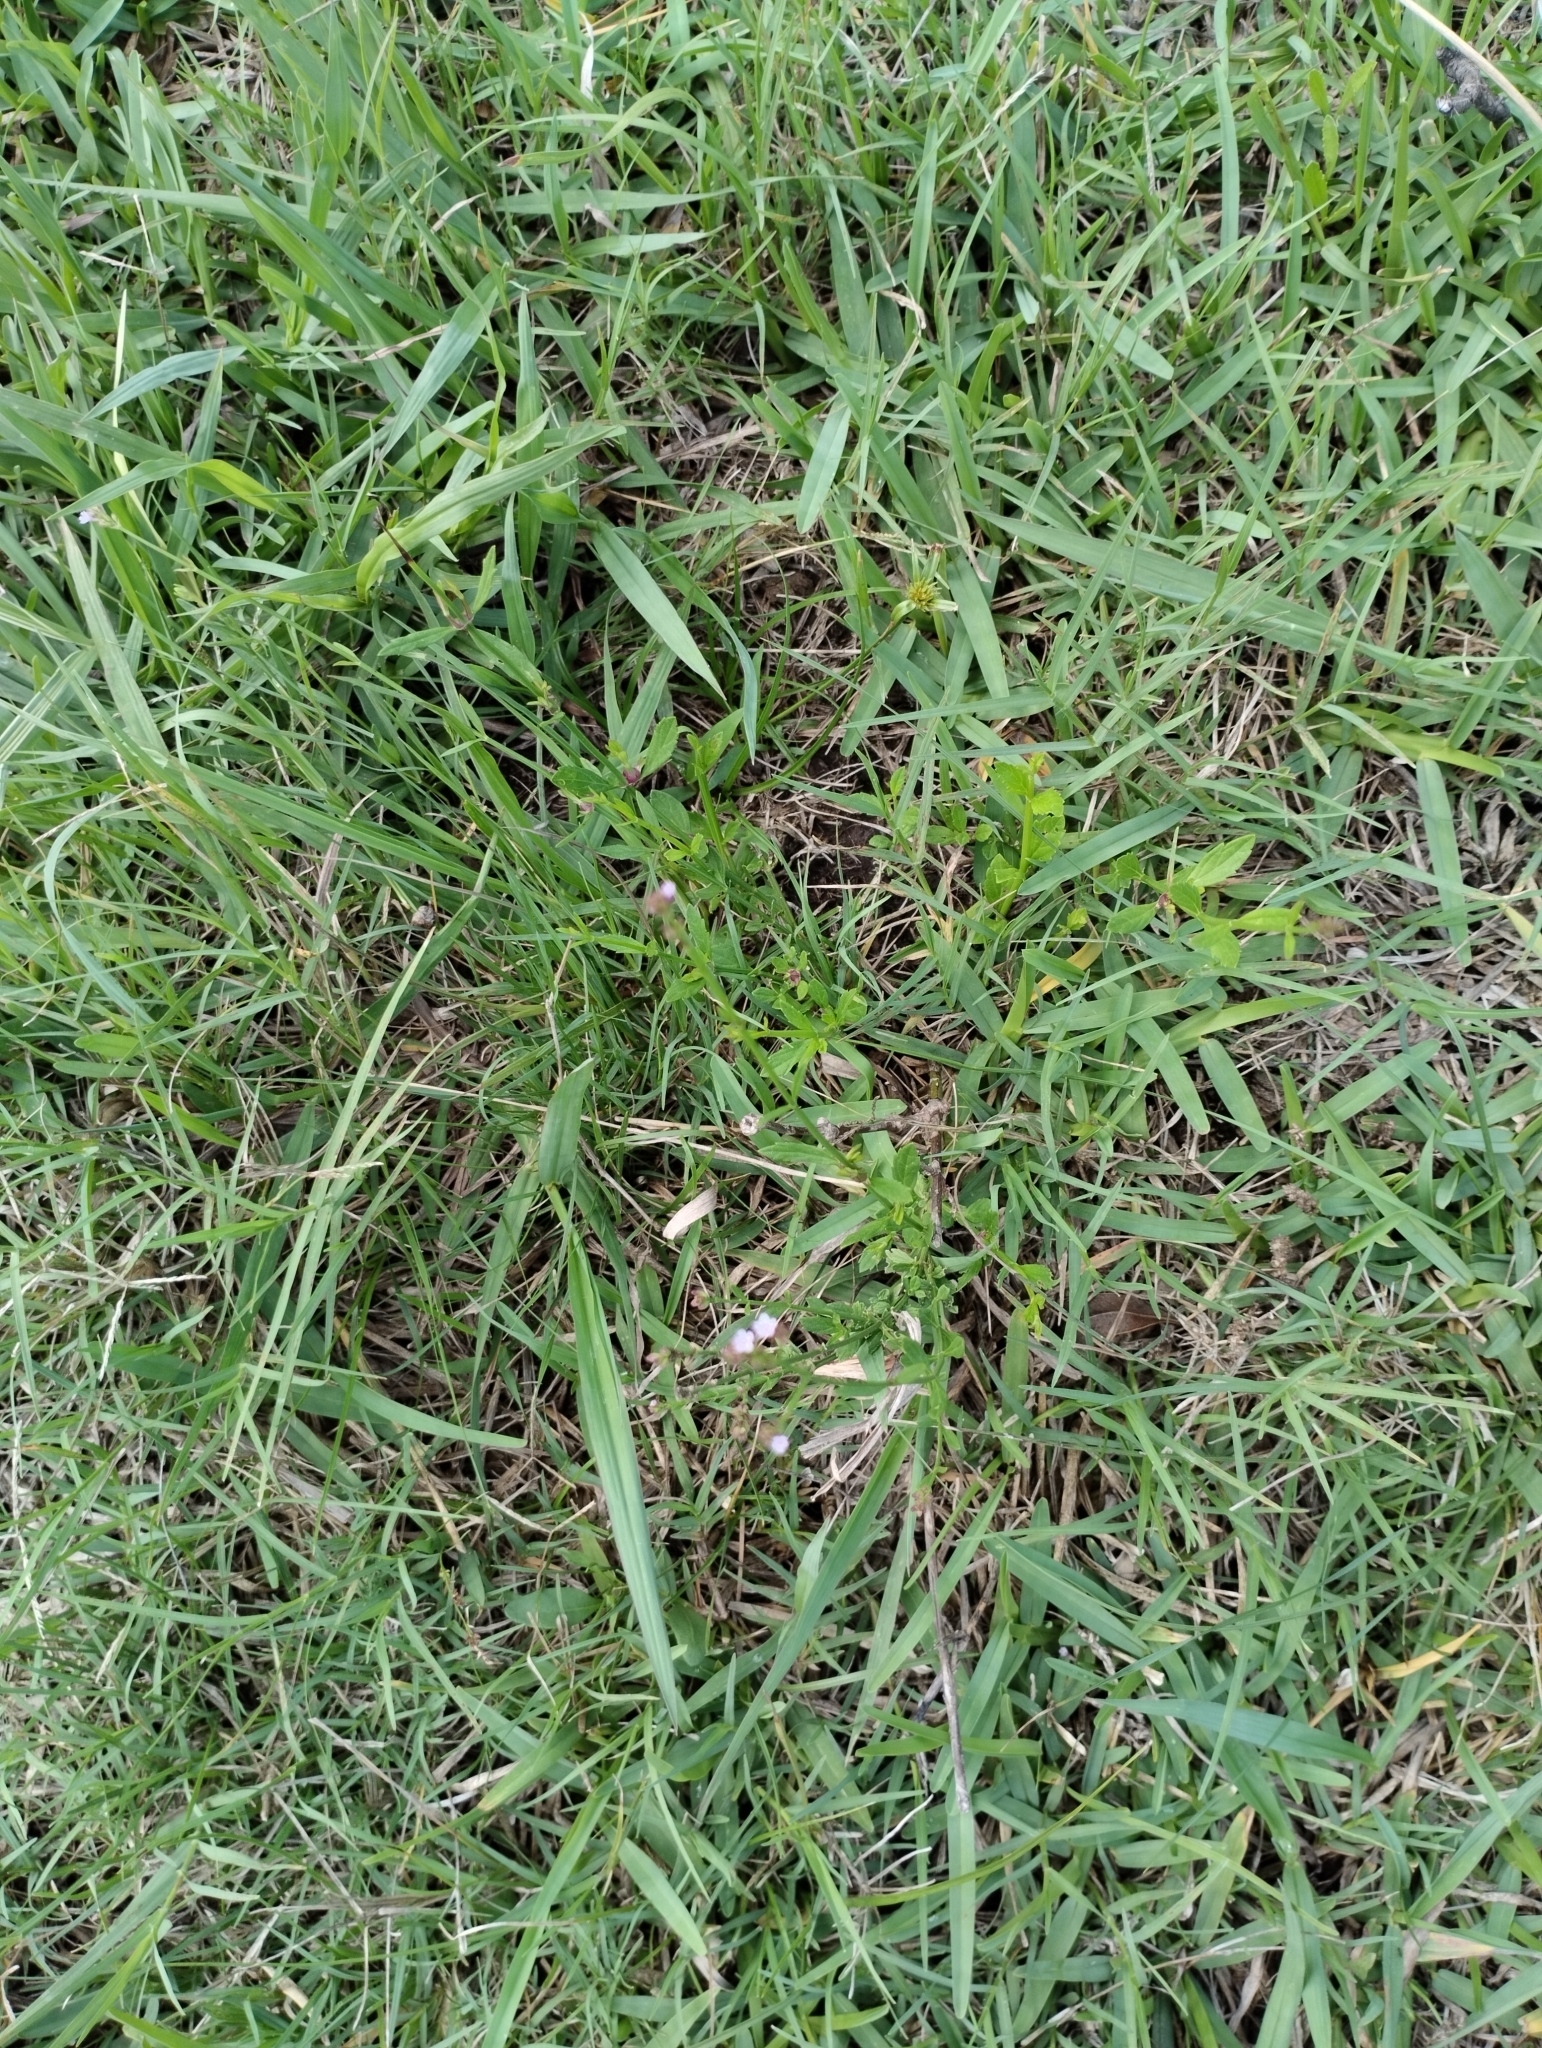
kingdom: Plantae
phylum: Tracheophyta
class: Magnoliopsida
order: Lamiales
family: Verbenaceae
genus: Verbena
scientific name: Verbena montevidensis
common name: Uruguayan vervain
